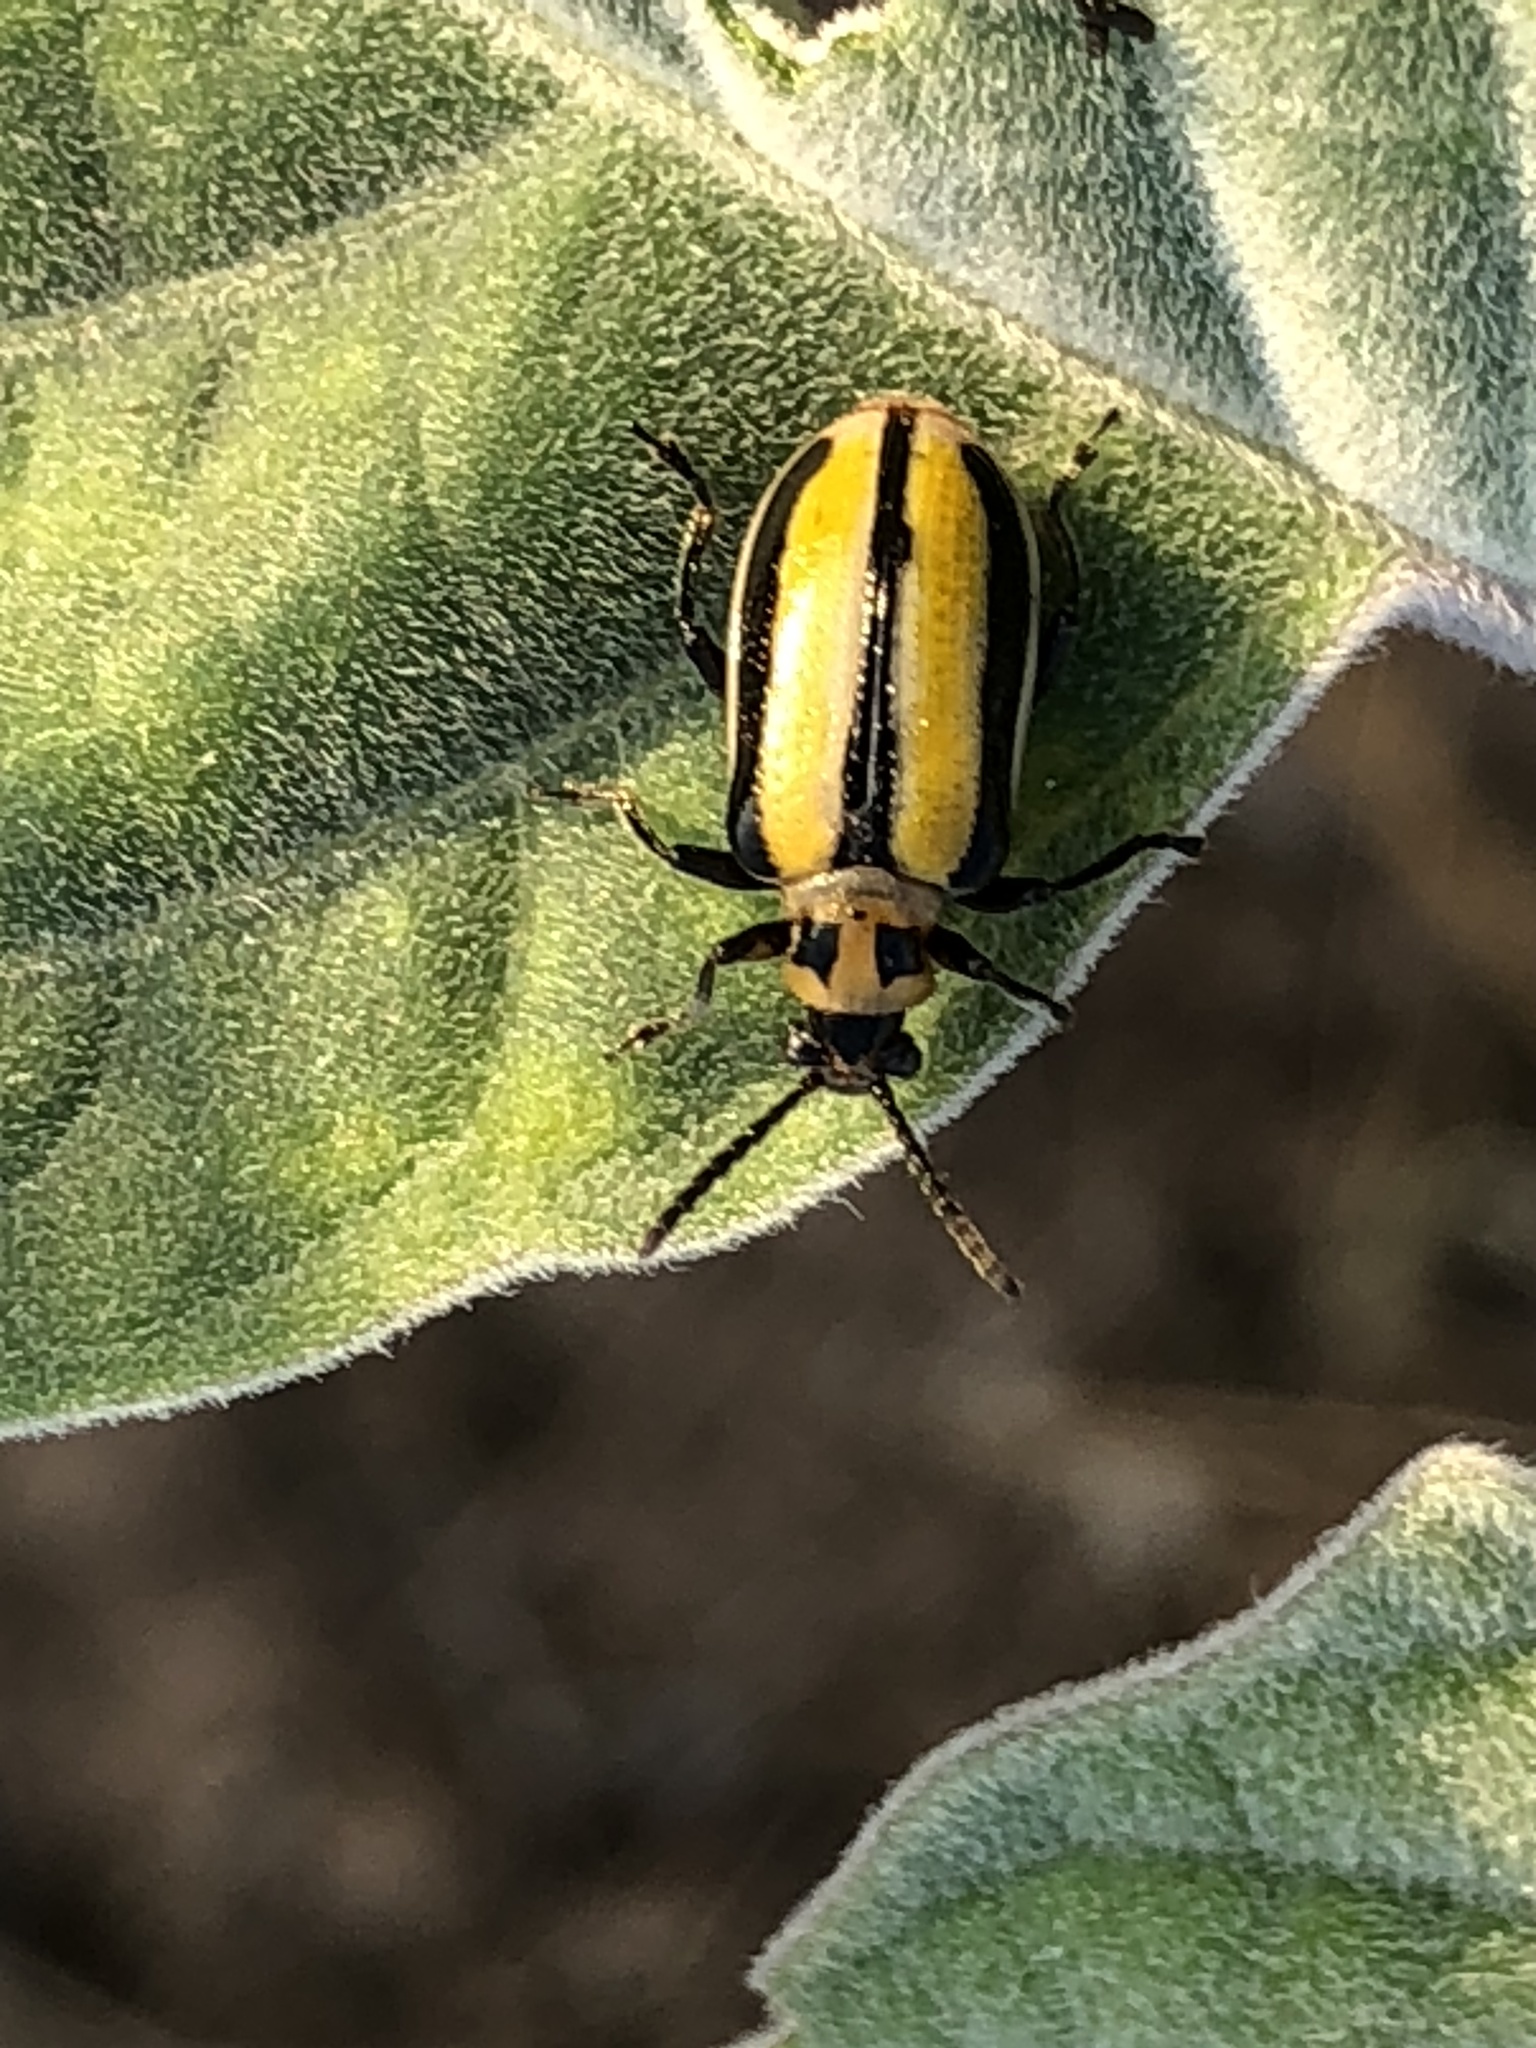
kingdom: Animalia
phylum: Arthropoda
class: Insecta
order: Coleoptera
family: Chrysomelidae
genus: Lema
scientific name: Lema daturaphila
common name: Leaf beetle
